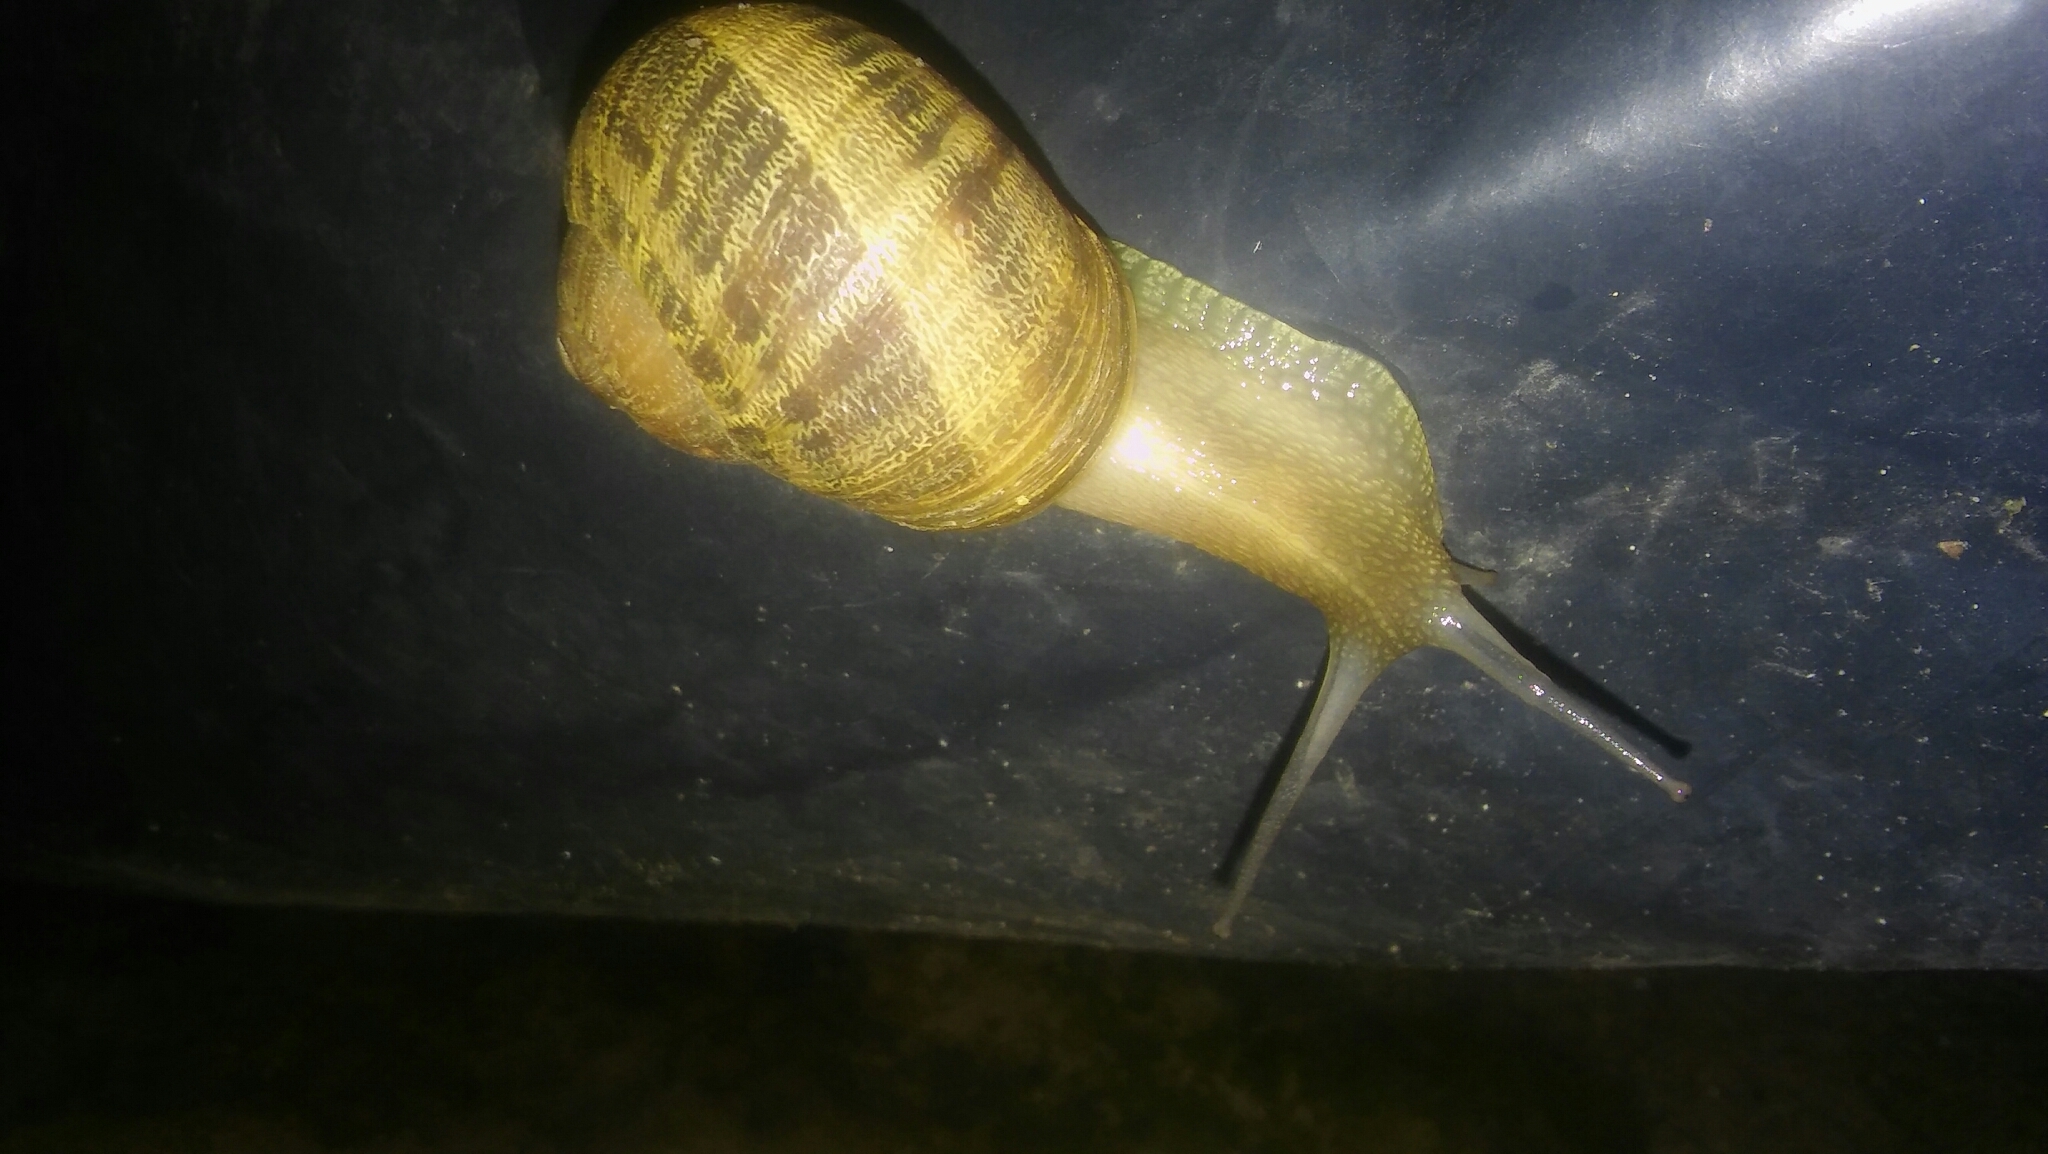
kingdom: Animalia
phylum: Mollusca
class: Gastropoda
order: Stylommatophora
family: Helicidae
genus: Cornu
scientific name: Cornu aspersum
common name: Brown garden snail
